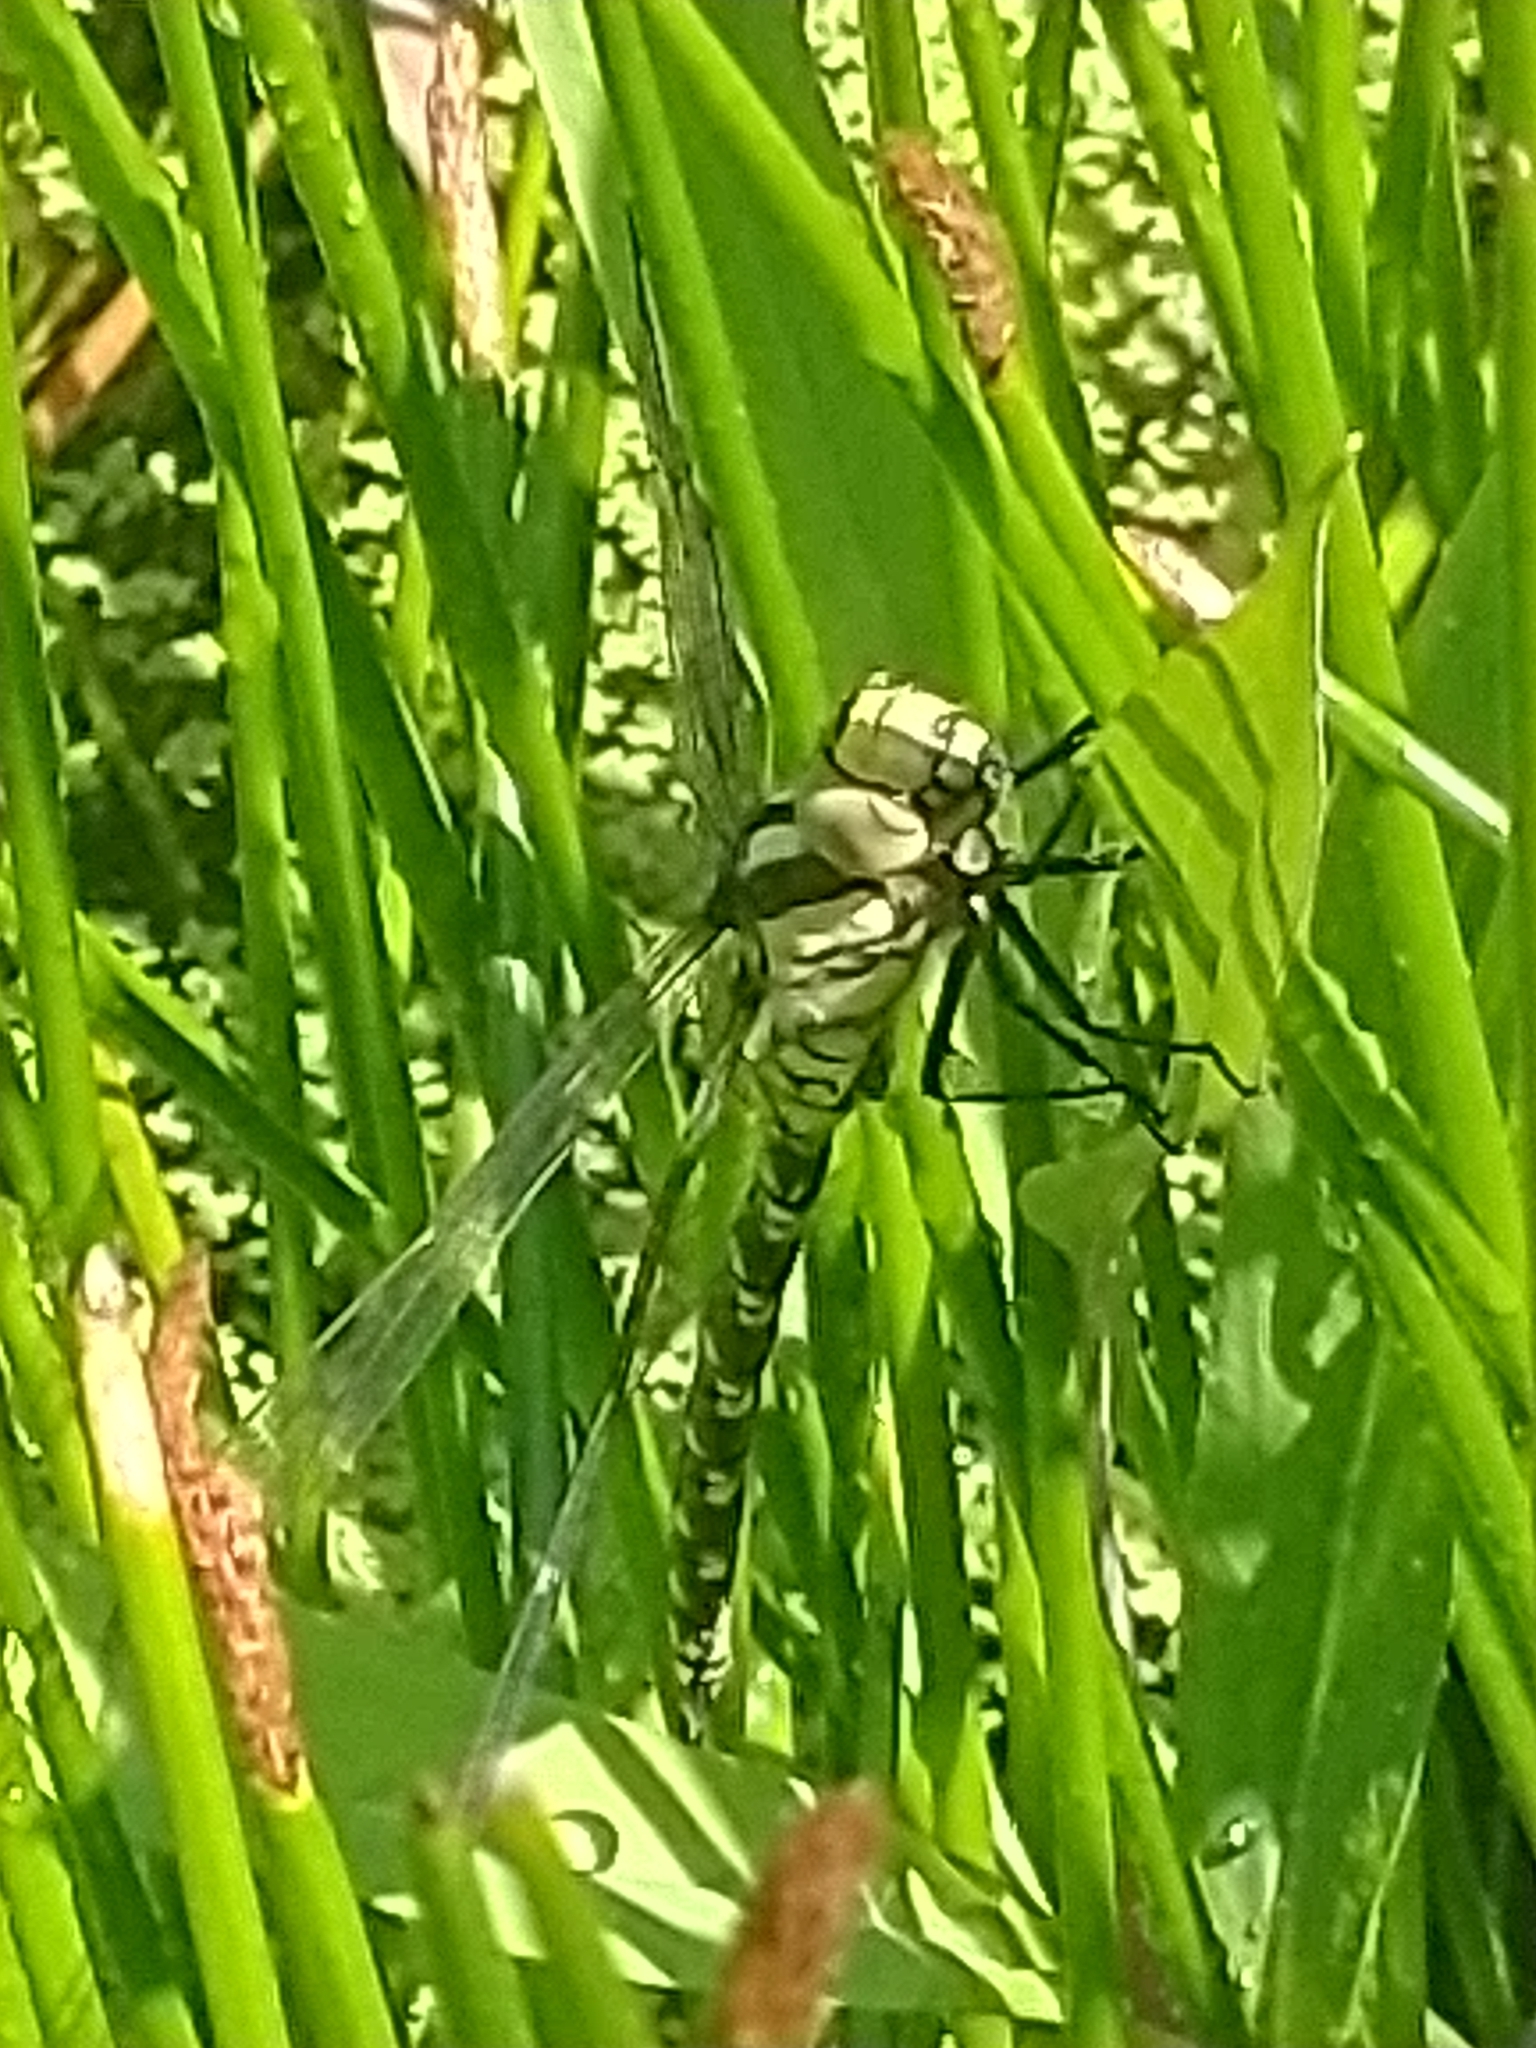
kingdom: Animalia
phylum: Arthropoda
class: Insecta
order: Odonata
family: Aeshnidae
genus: Aeshna
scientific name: Aeshna cyanea
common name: Southern hawker
